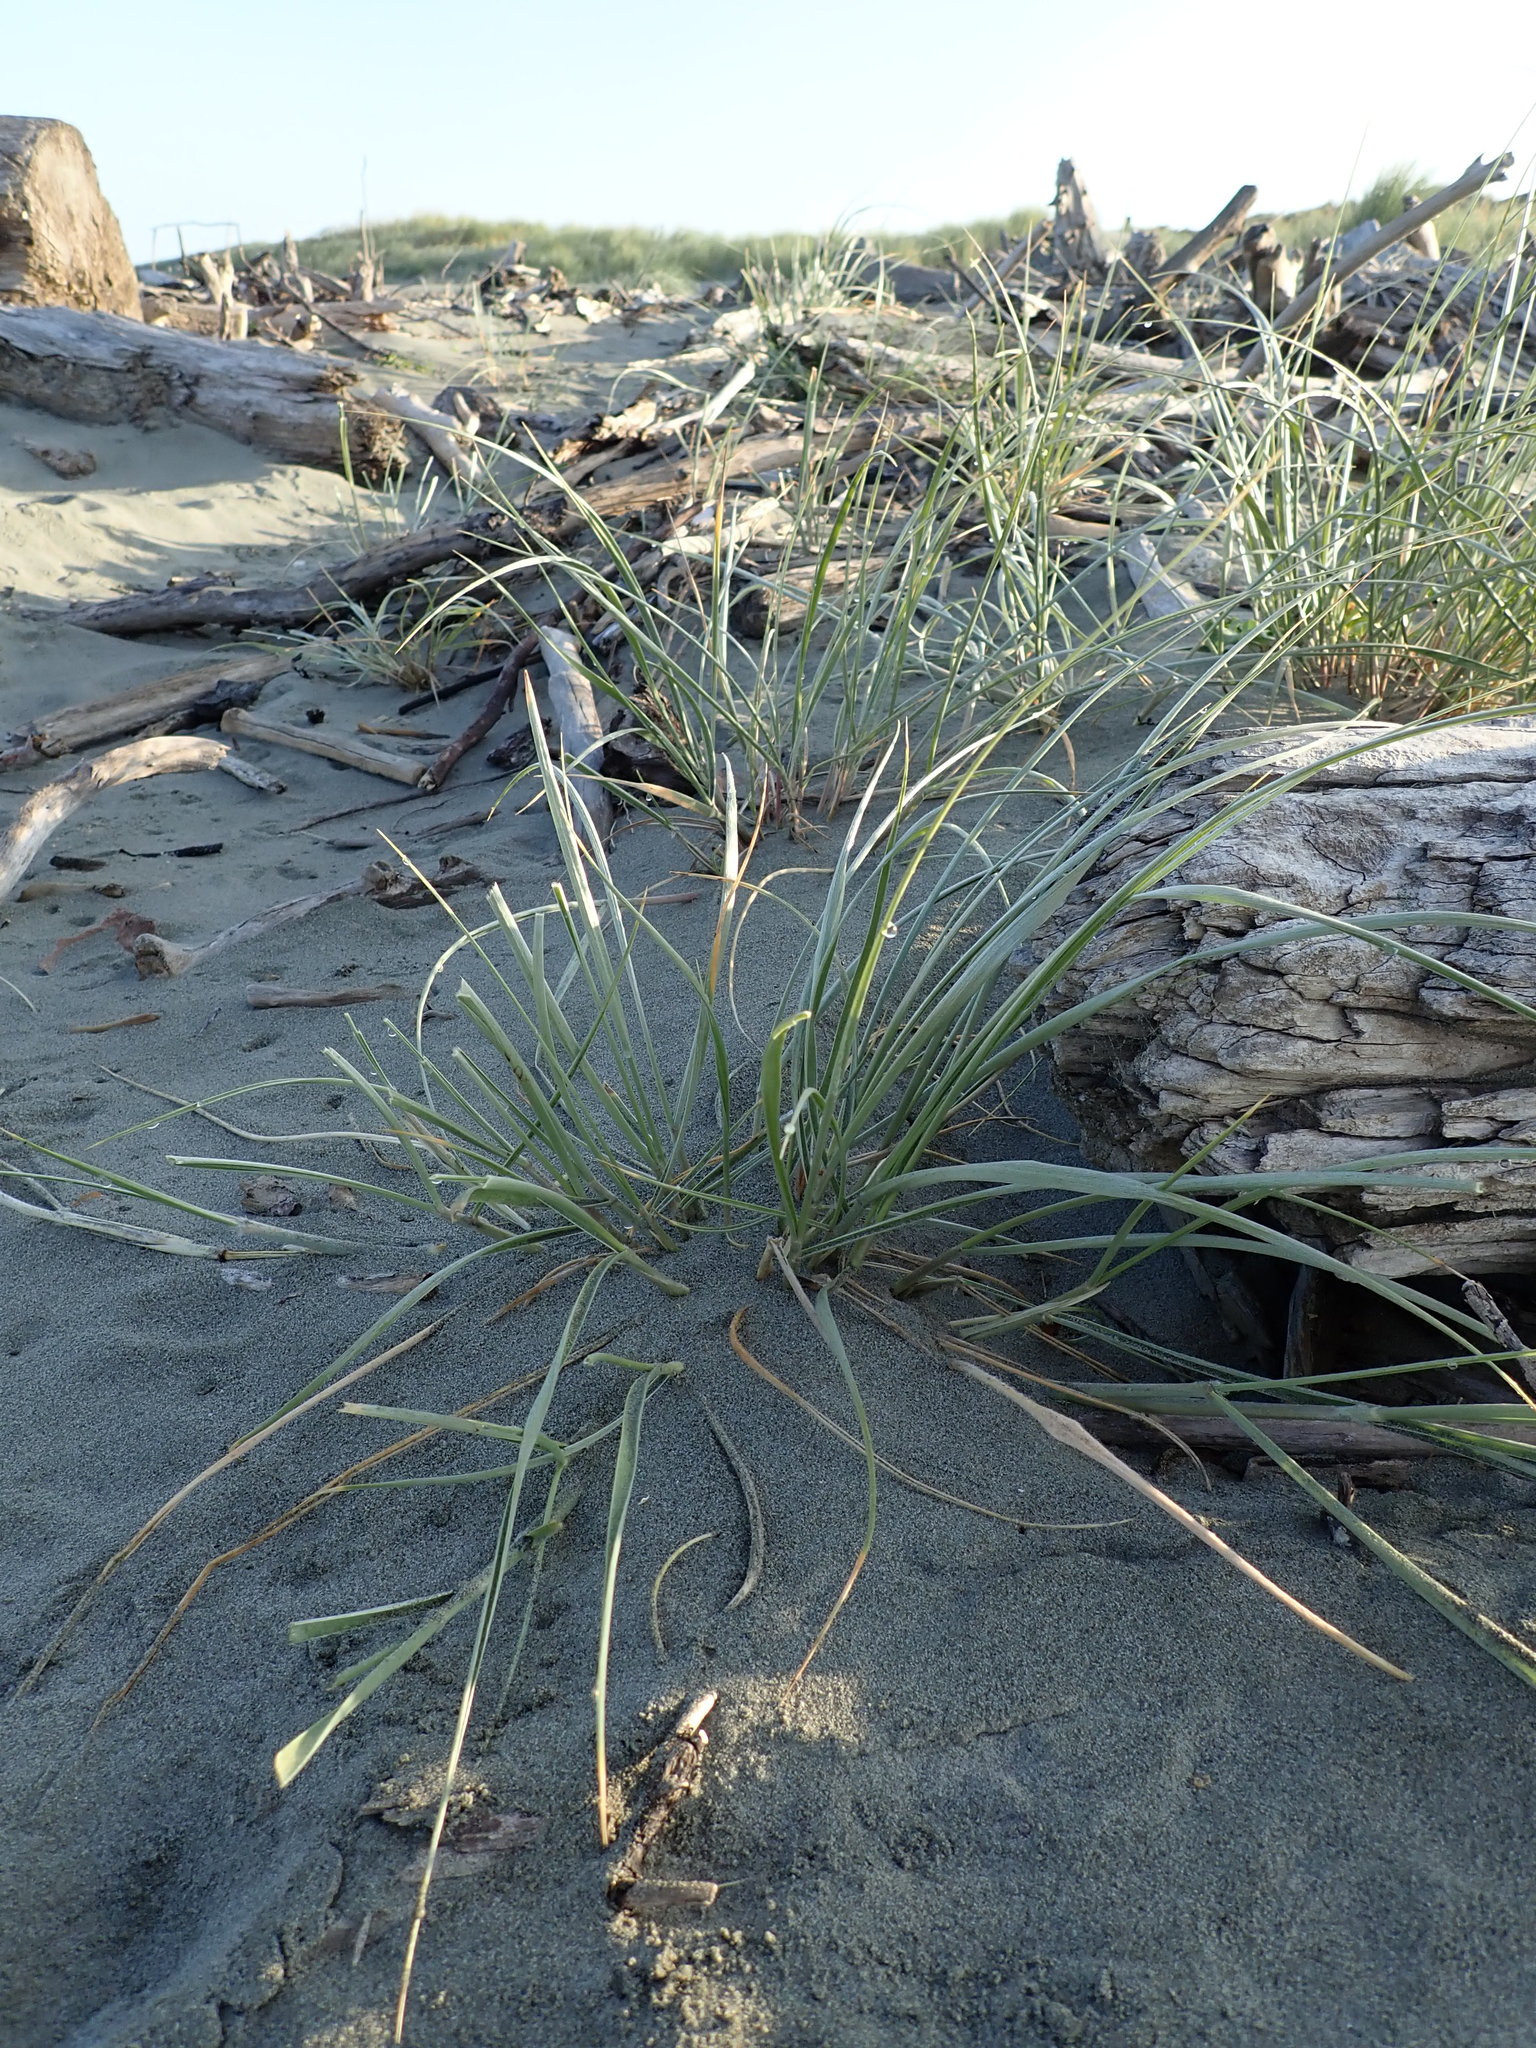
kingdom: Plantae
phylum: Tracheophyta
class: Liliopsida
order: Poales
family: Poaceae
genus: Spinifex
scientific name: Spinifex sericeus
